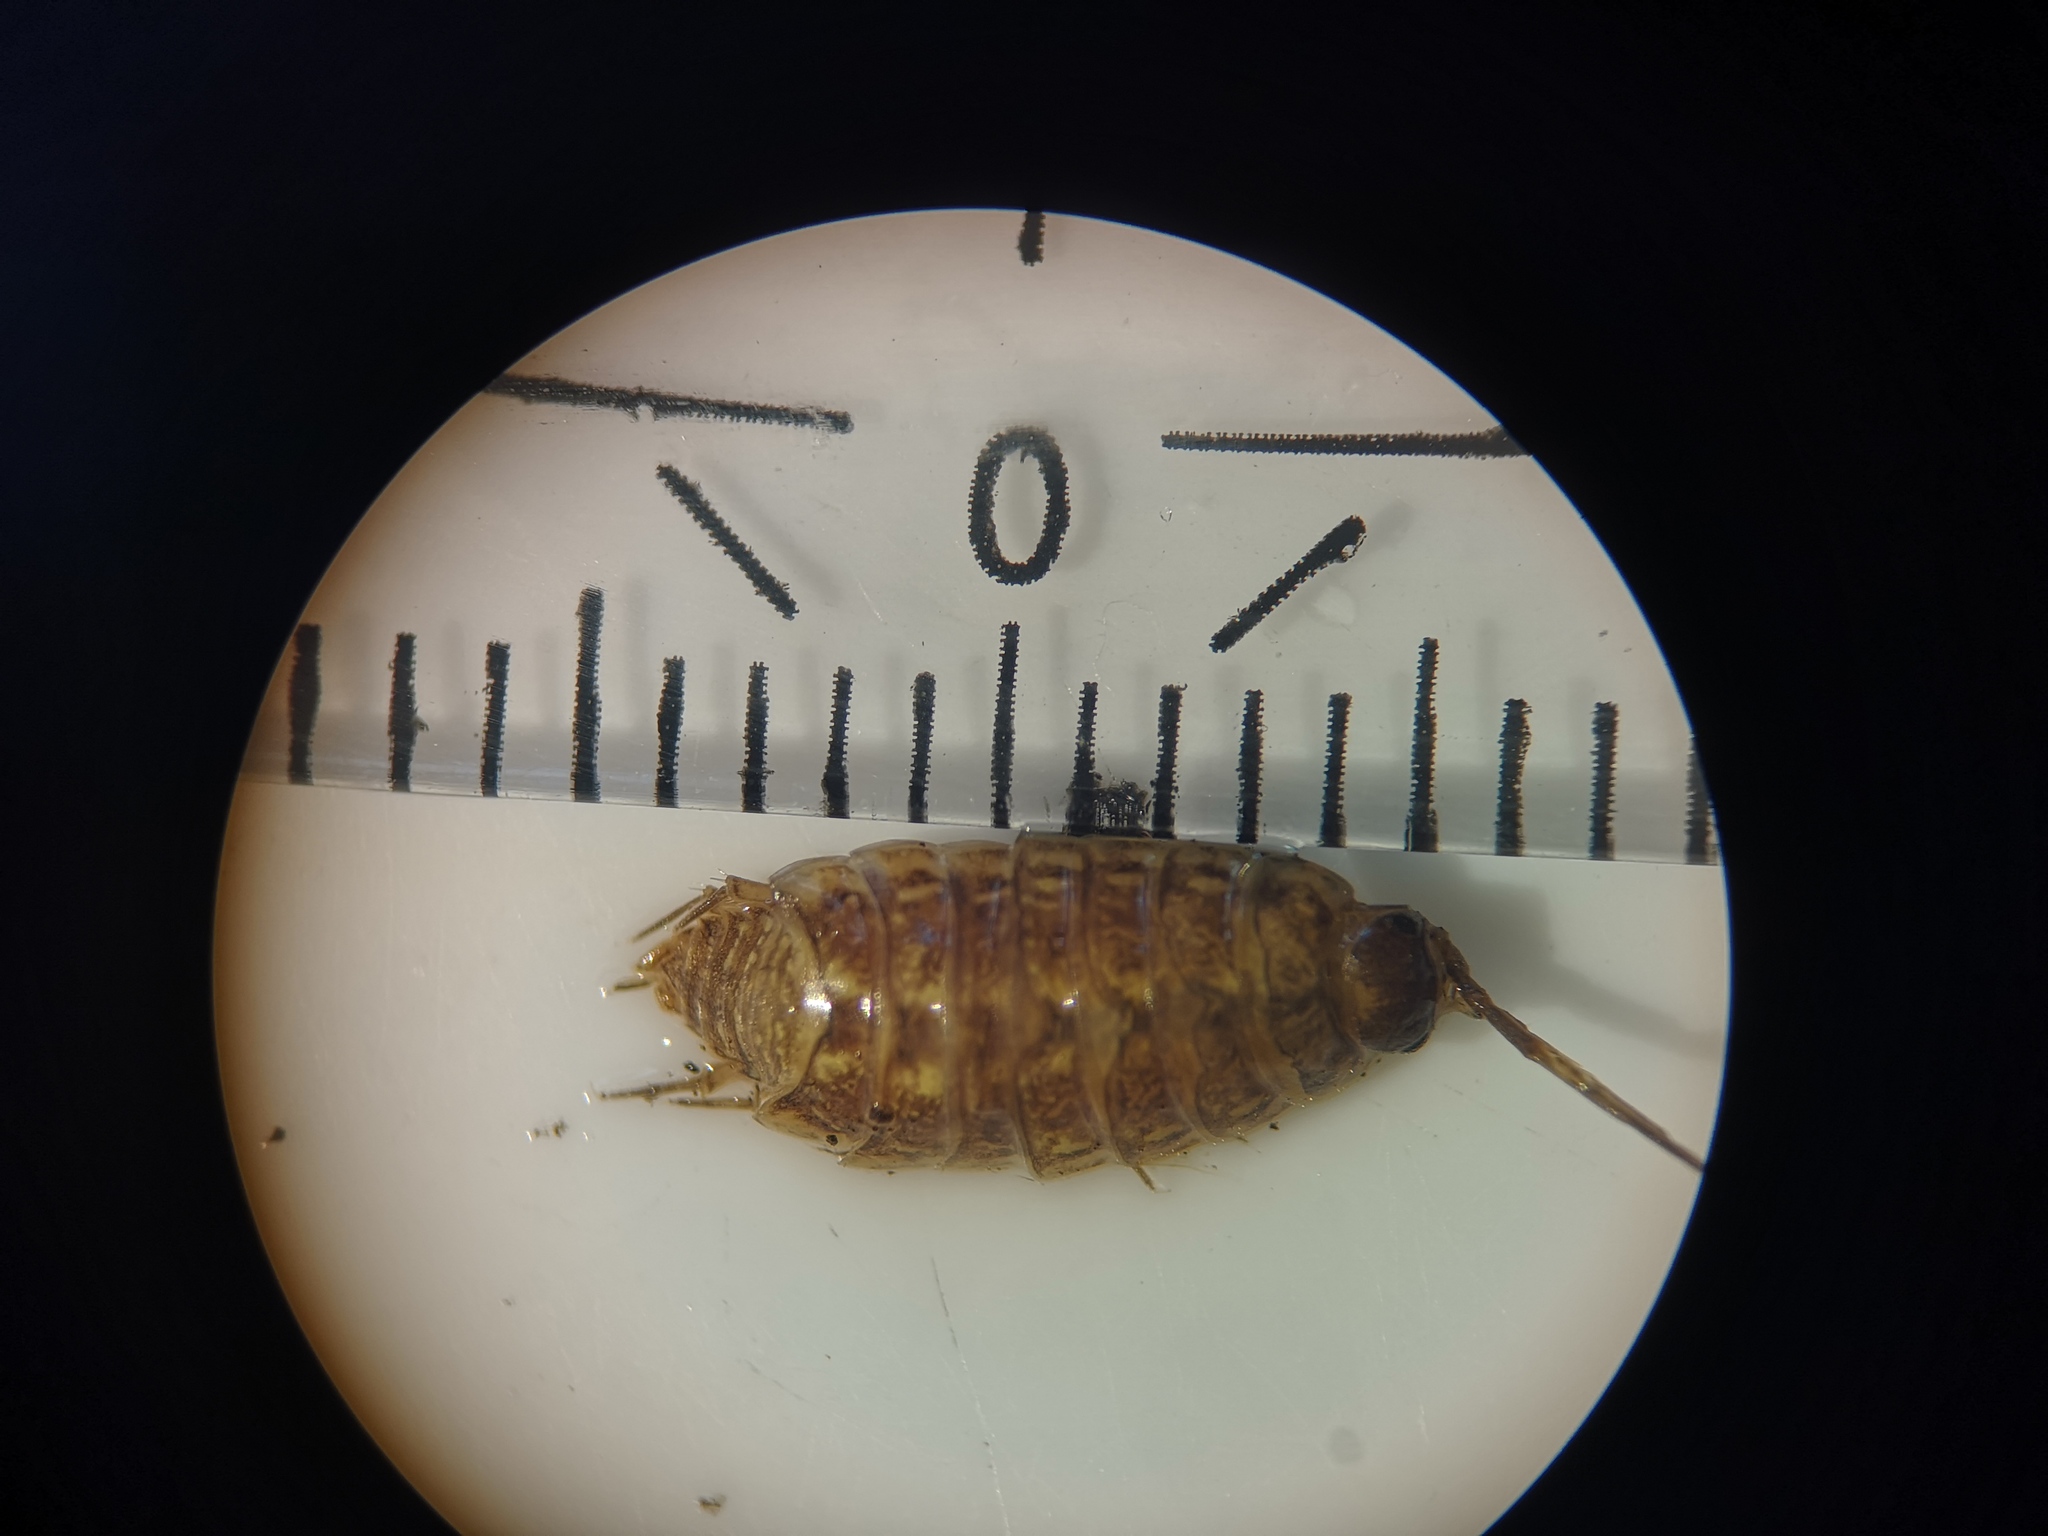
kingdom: Animalia
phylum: Arthropoda
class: Malacostraca
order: Isopoda
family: Philosciidae
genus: Philoscia
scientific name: Philoscia muscorum
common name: Common striped woodlouse
